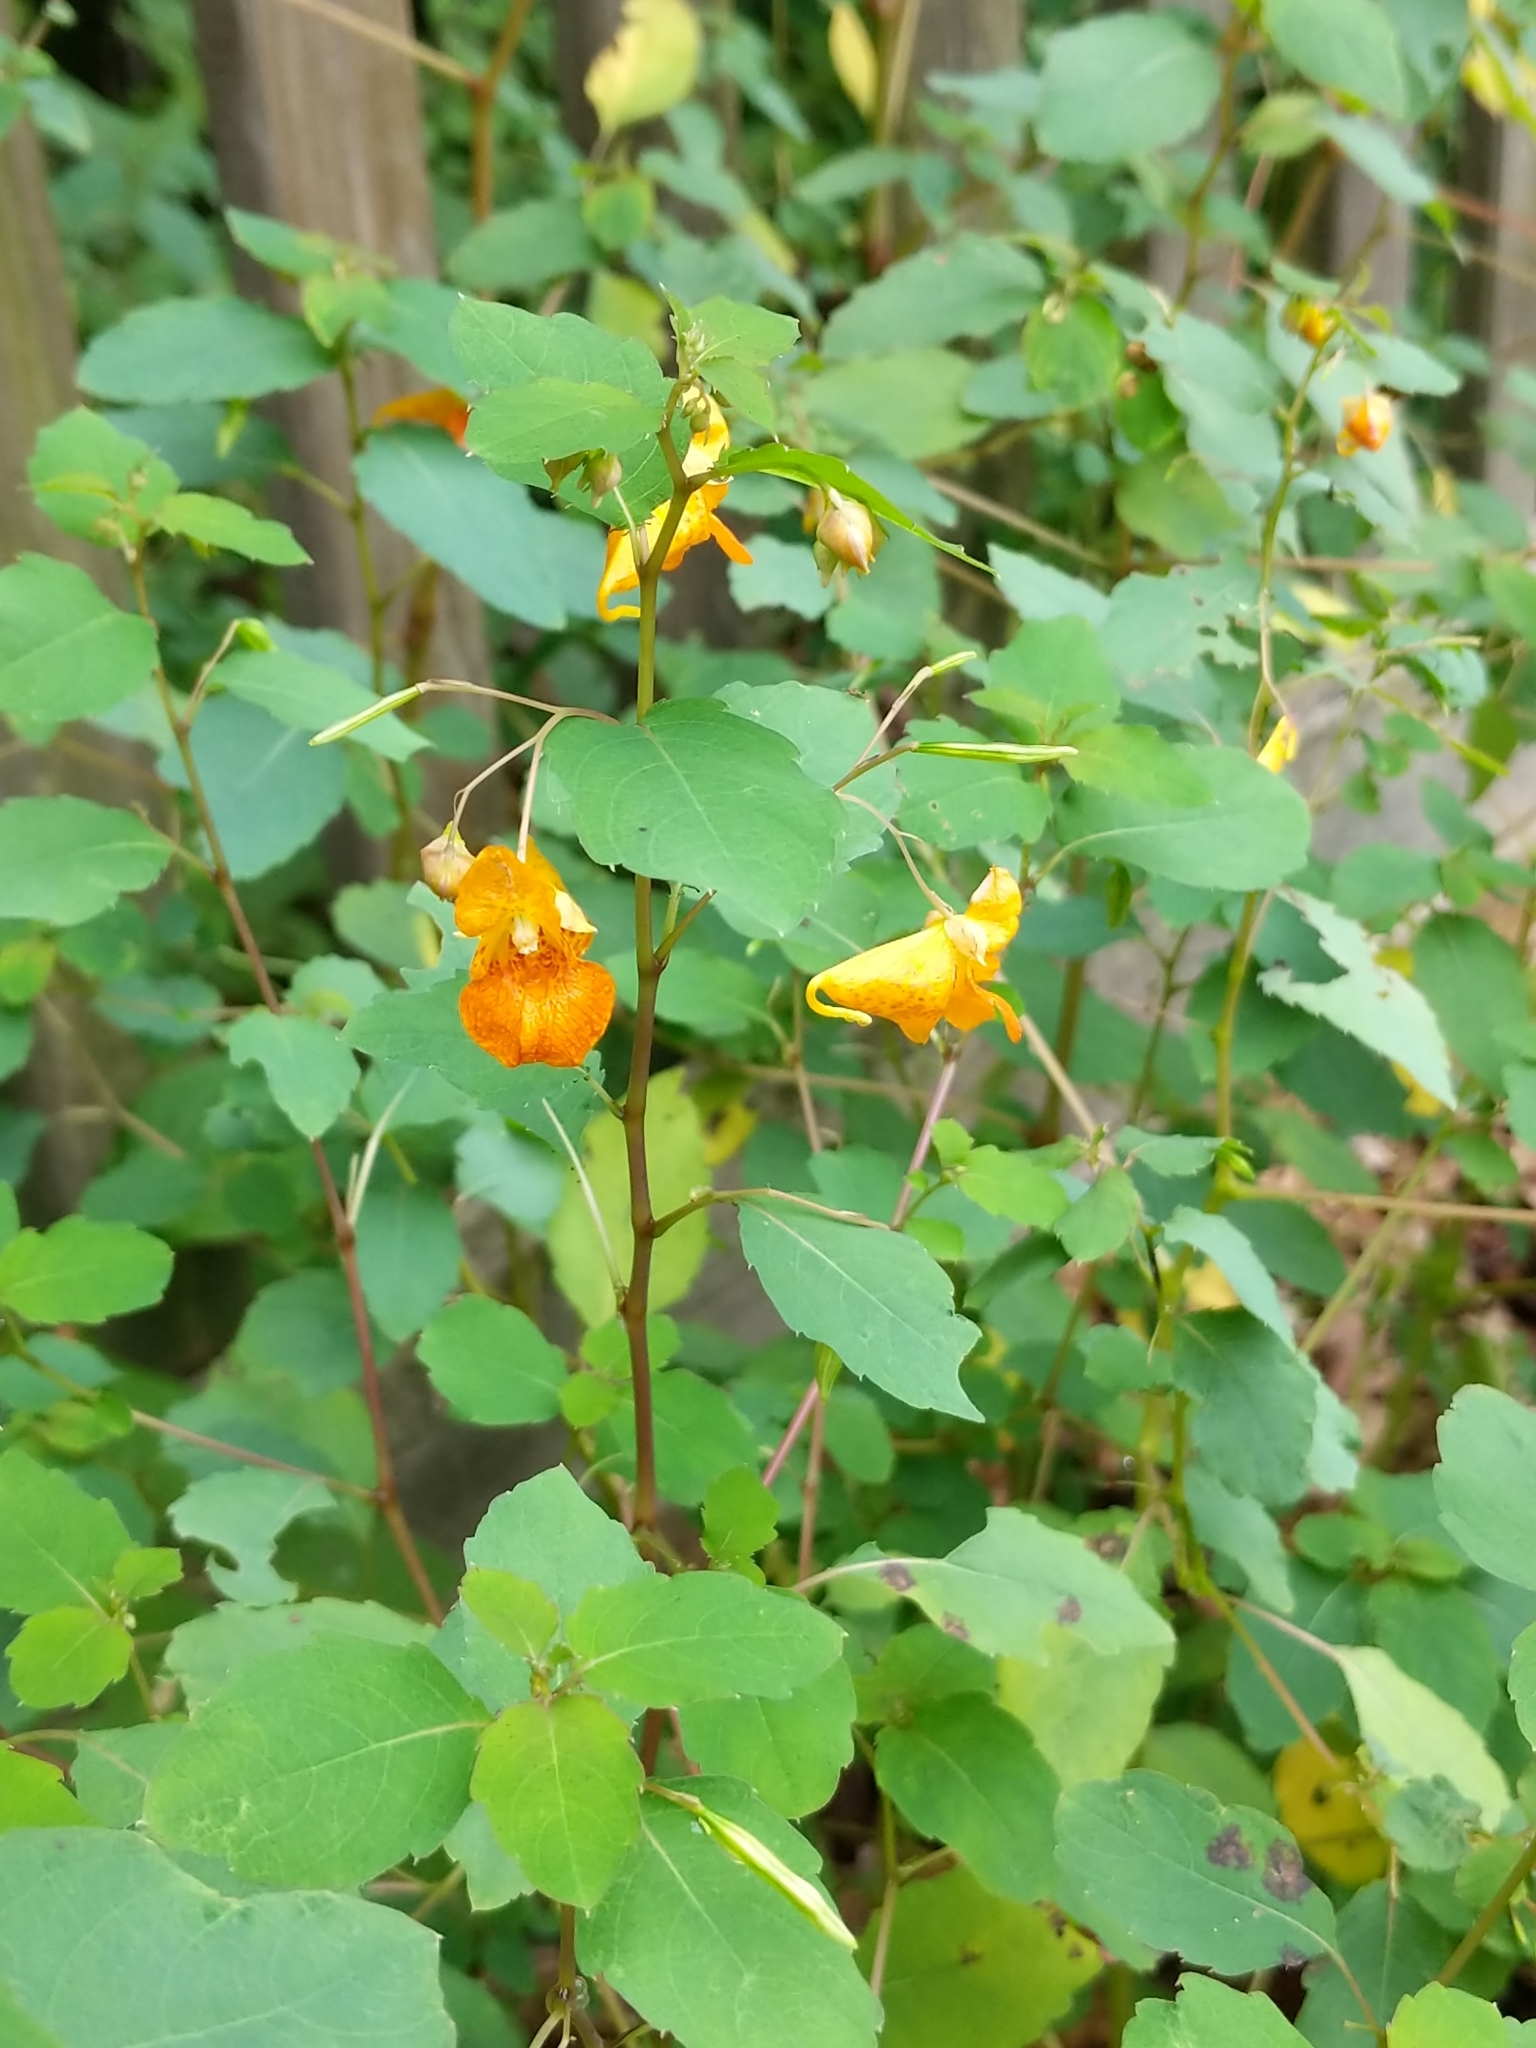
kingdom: Plantae
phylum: Tracheophyta
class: Magnoliopsida
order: Ericales
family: Balsaminaceae
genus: Impatiens
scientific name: Impatiens capensis
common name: Orange balsam
